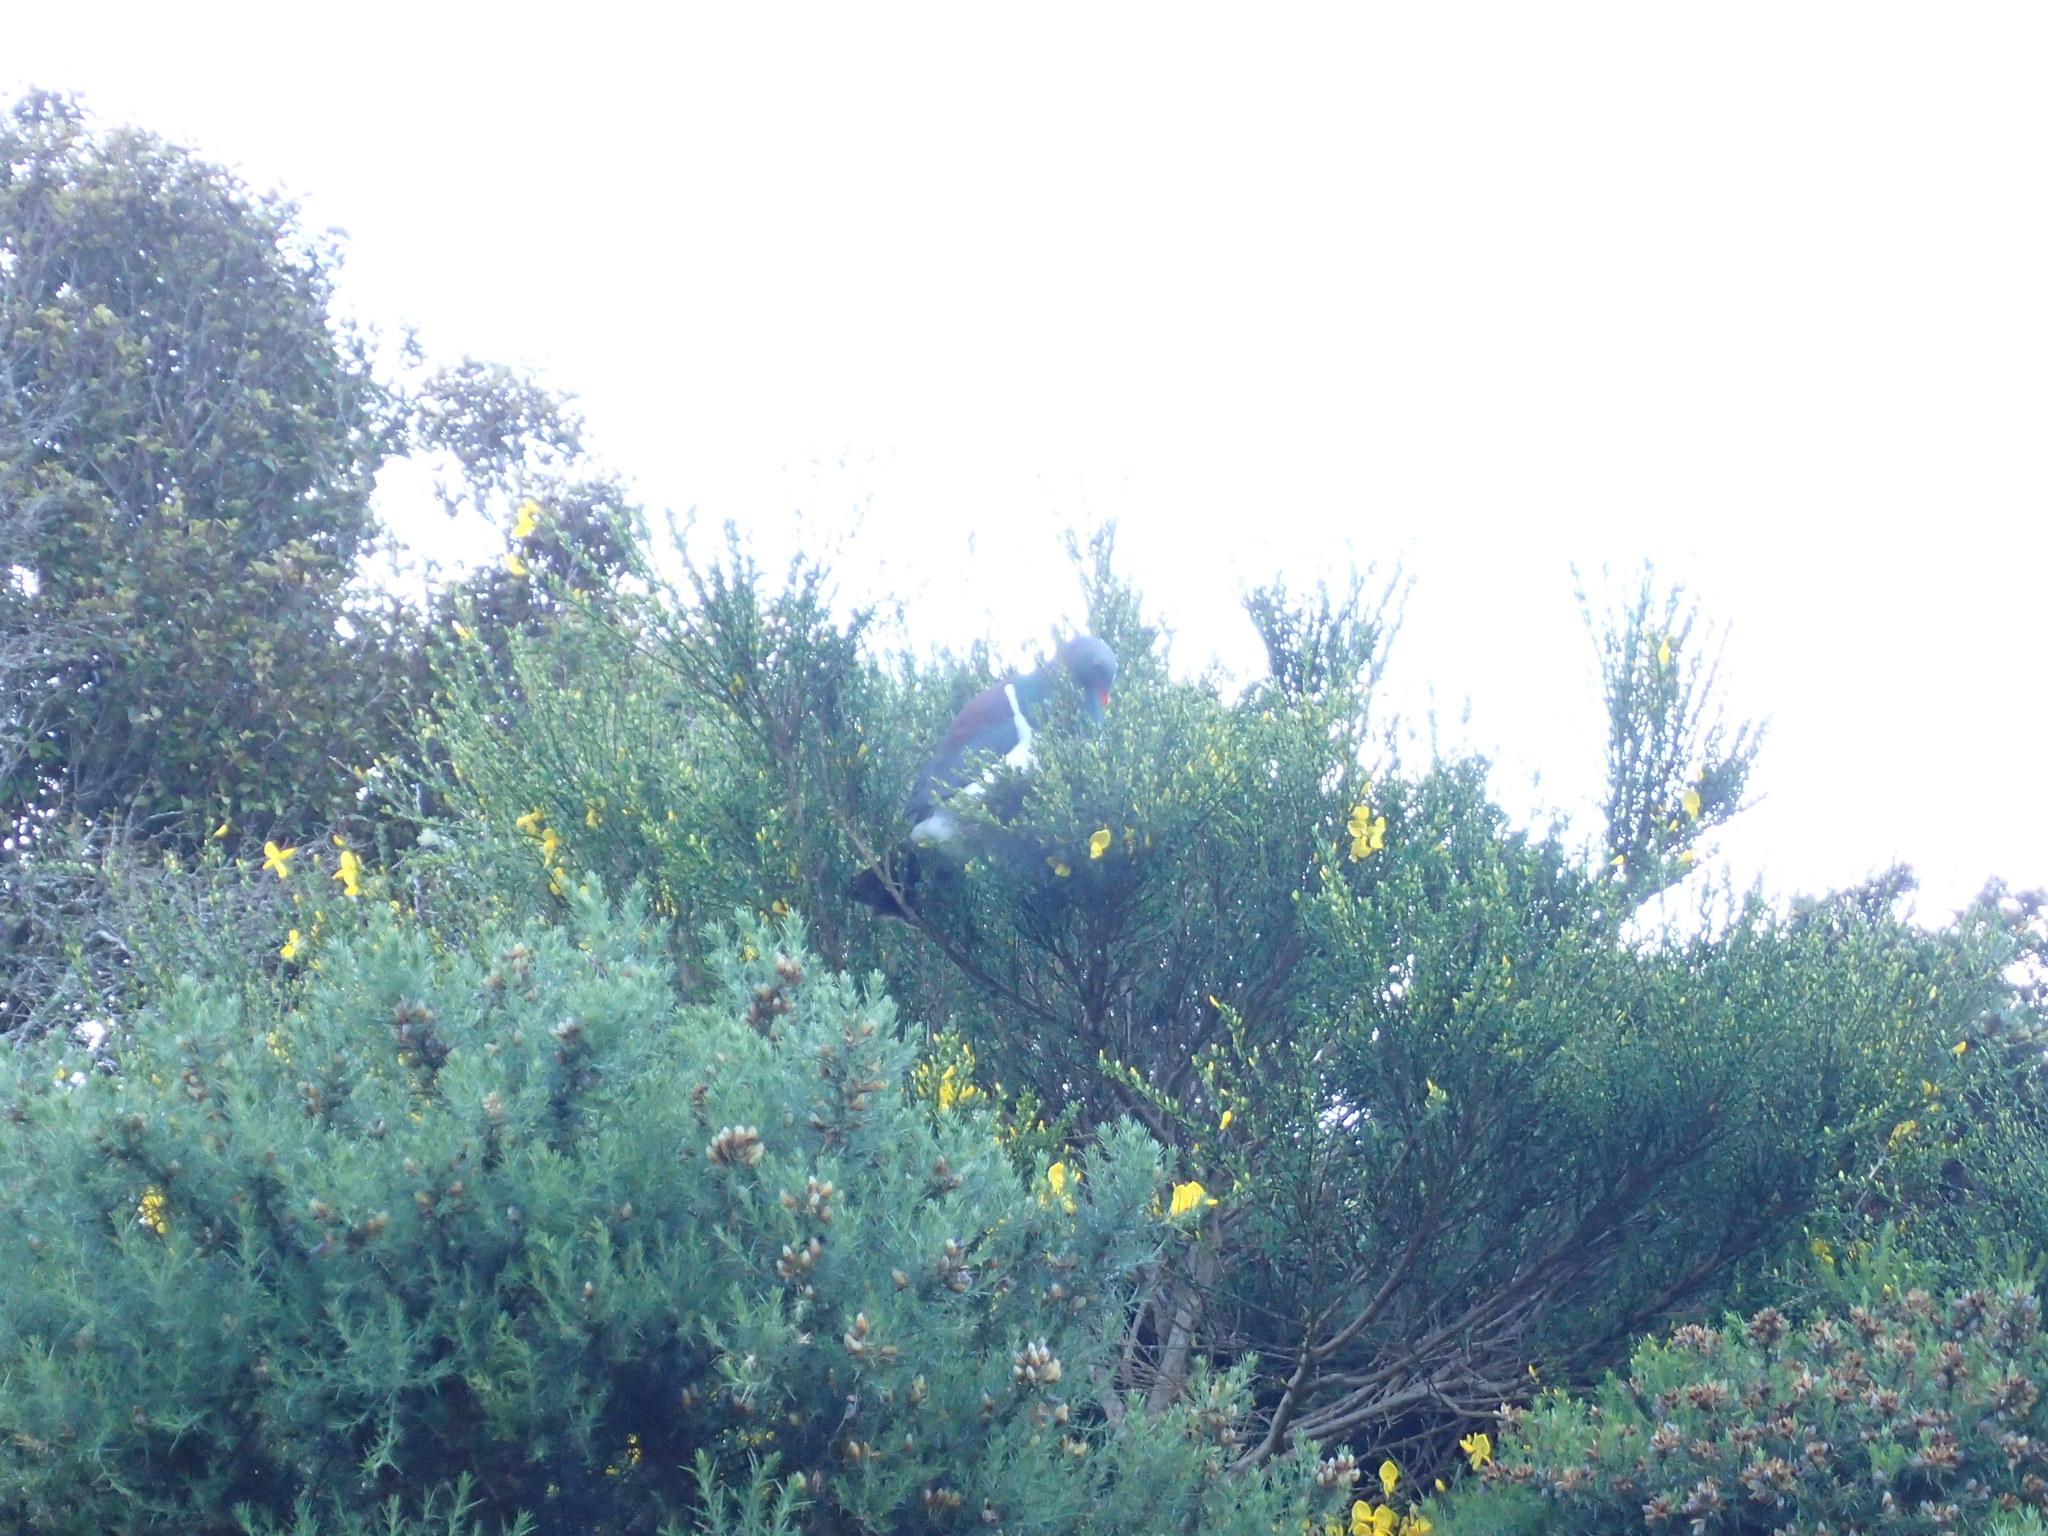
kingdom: Animalia
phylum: Chordata
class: Aves
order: Columbiformes
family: Columbidae
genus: Hemiphaga
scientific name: Hemiphaga novaeseelandiae
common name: New zealand pigeon
